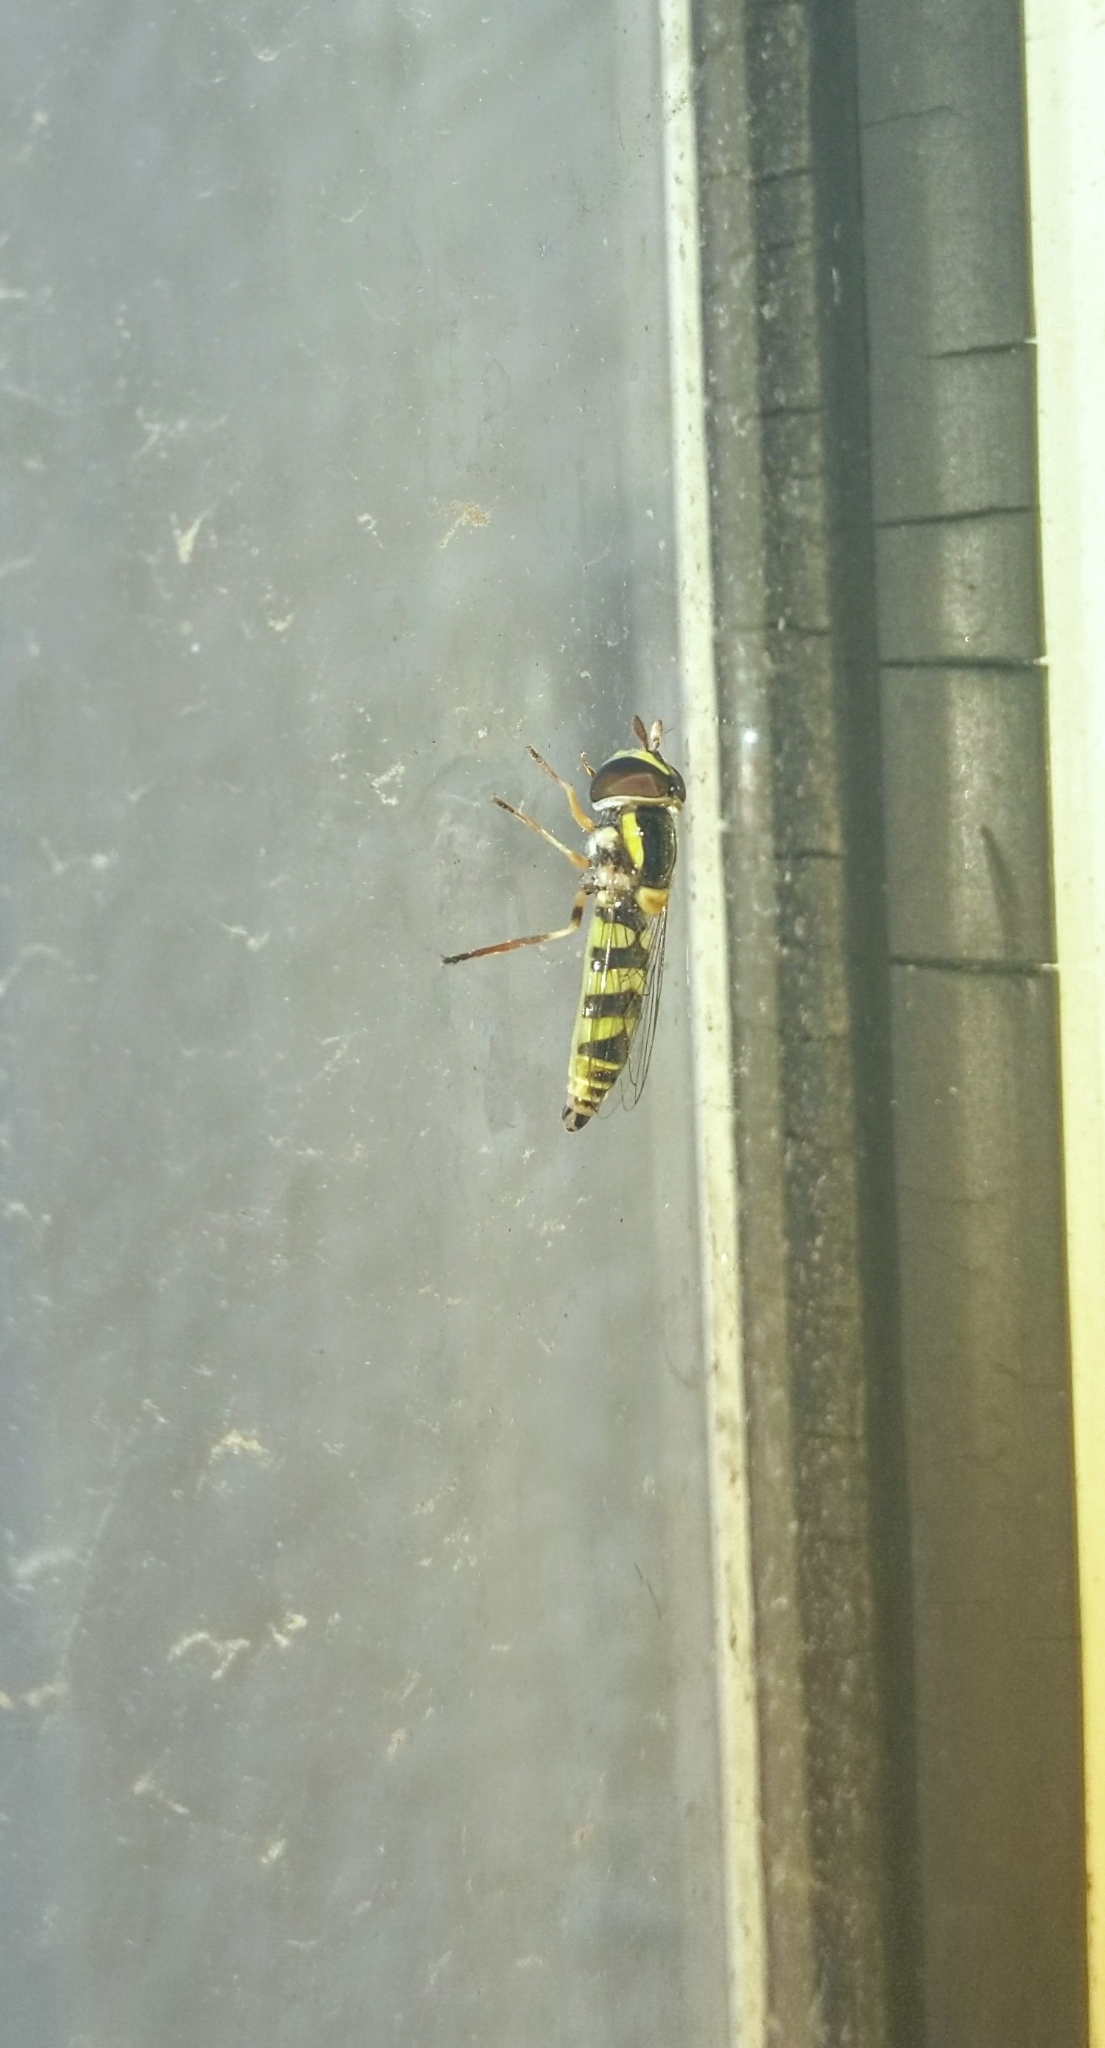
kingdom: Animalia
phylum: Arthropoda
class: Insecta
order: Diptera
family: Syrphidae
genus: Ischiodon
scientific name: Ischiodon scutellaris
